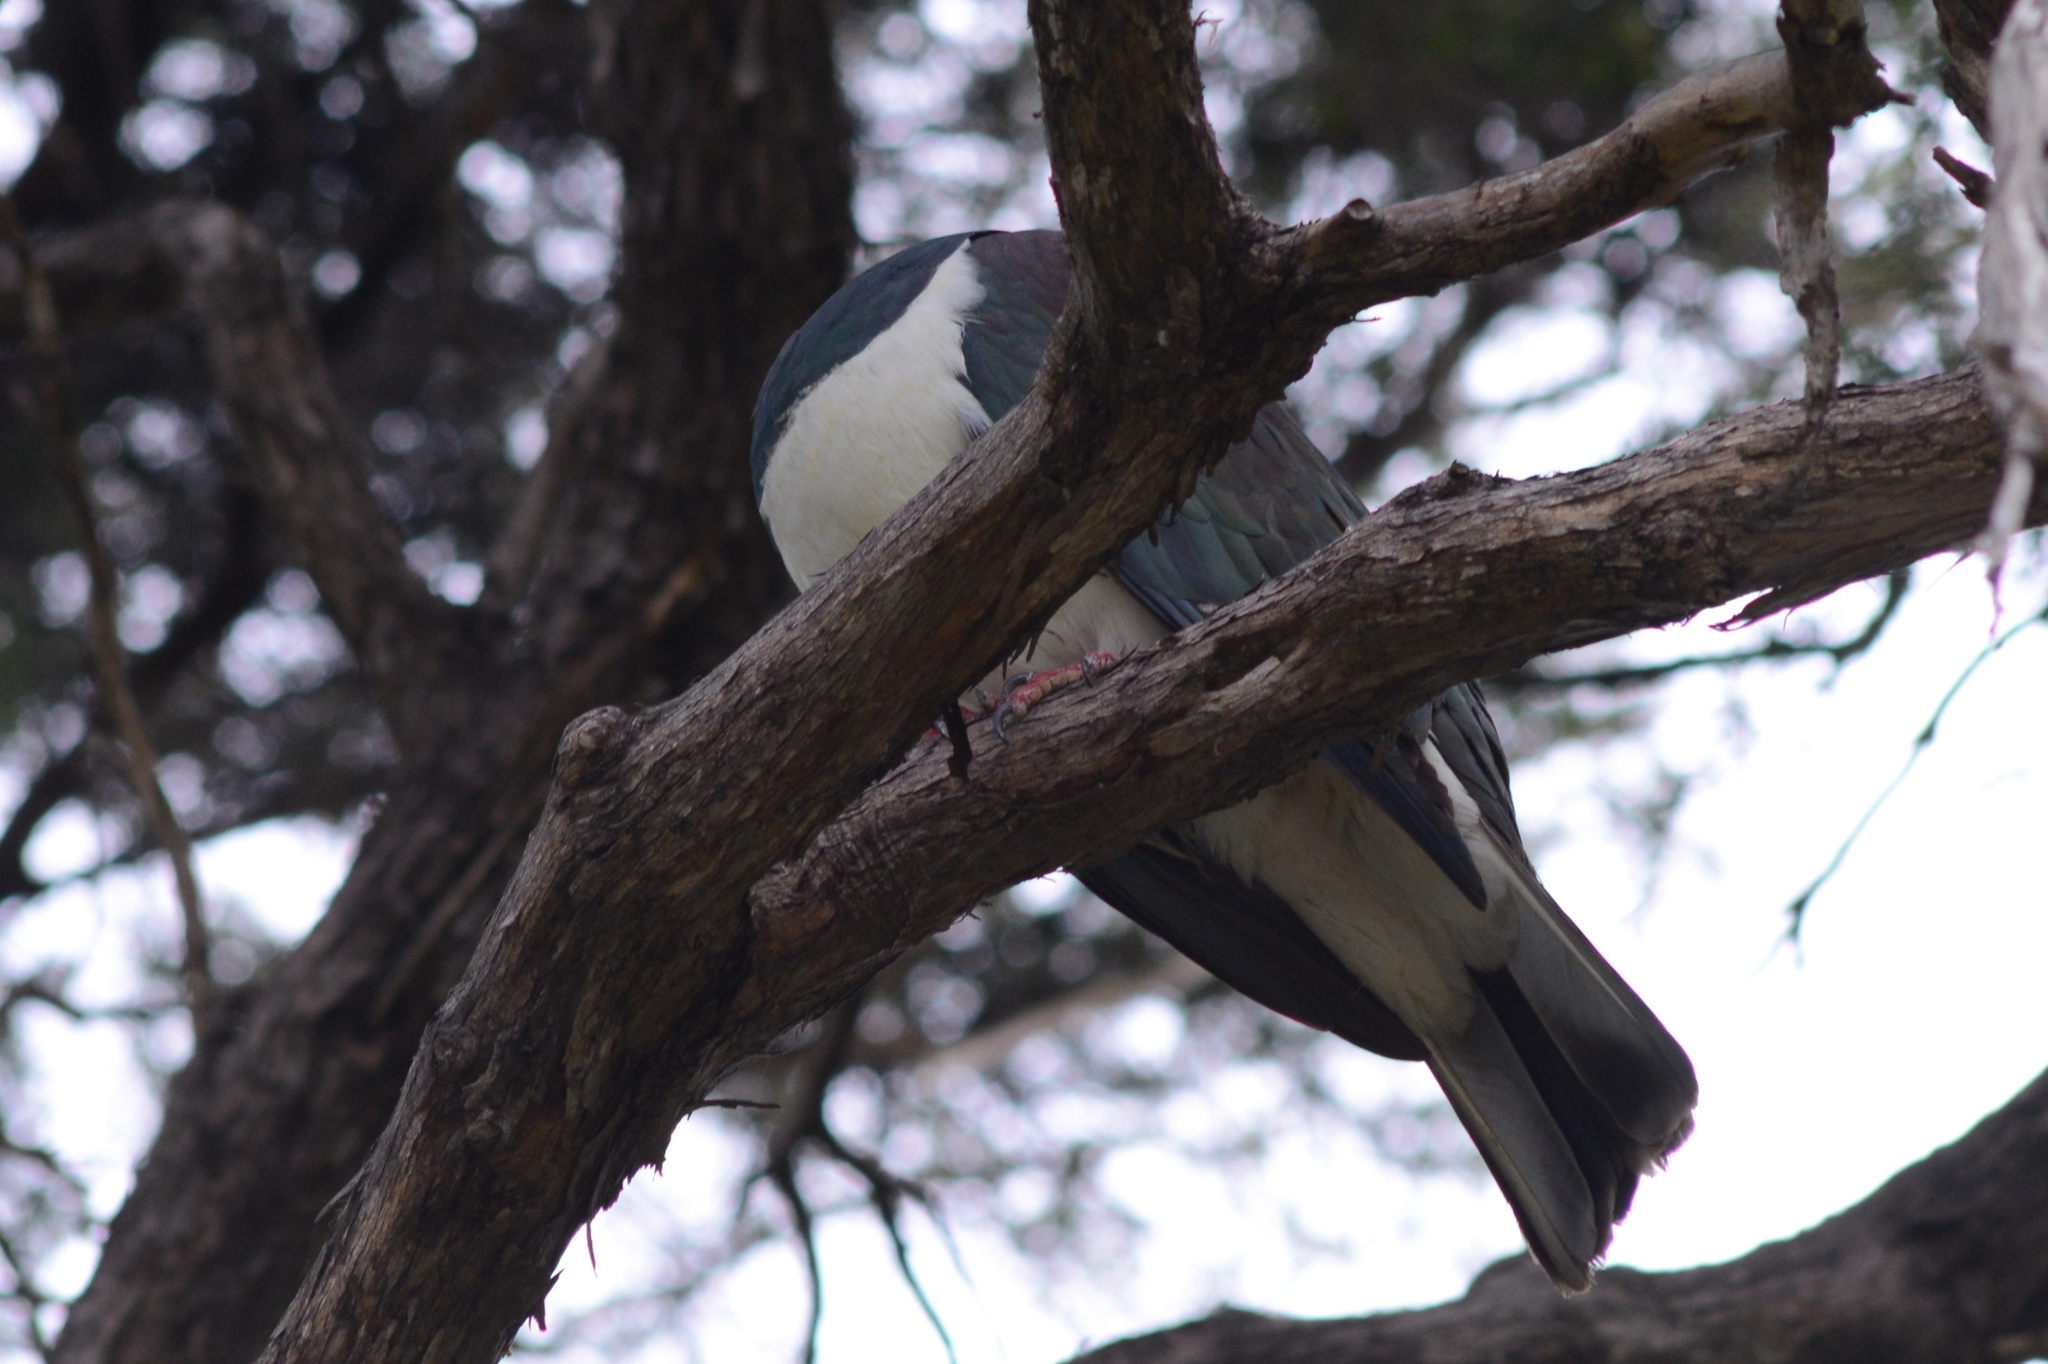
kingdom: Animalia
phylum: Chordata
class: Aves
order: Columbiformes
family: Columbidae
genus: Hemiphaga
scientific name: Hemiphaga novaeseelandiae
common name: New zealand pigeon
